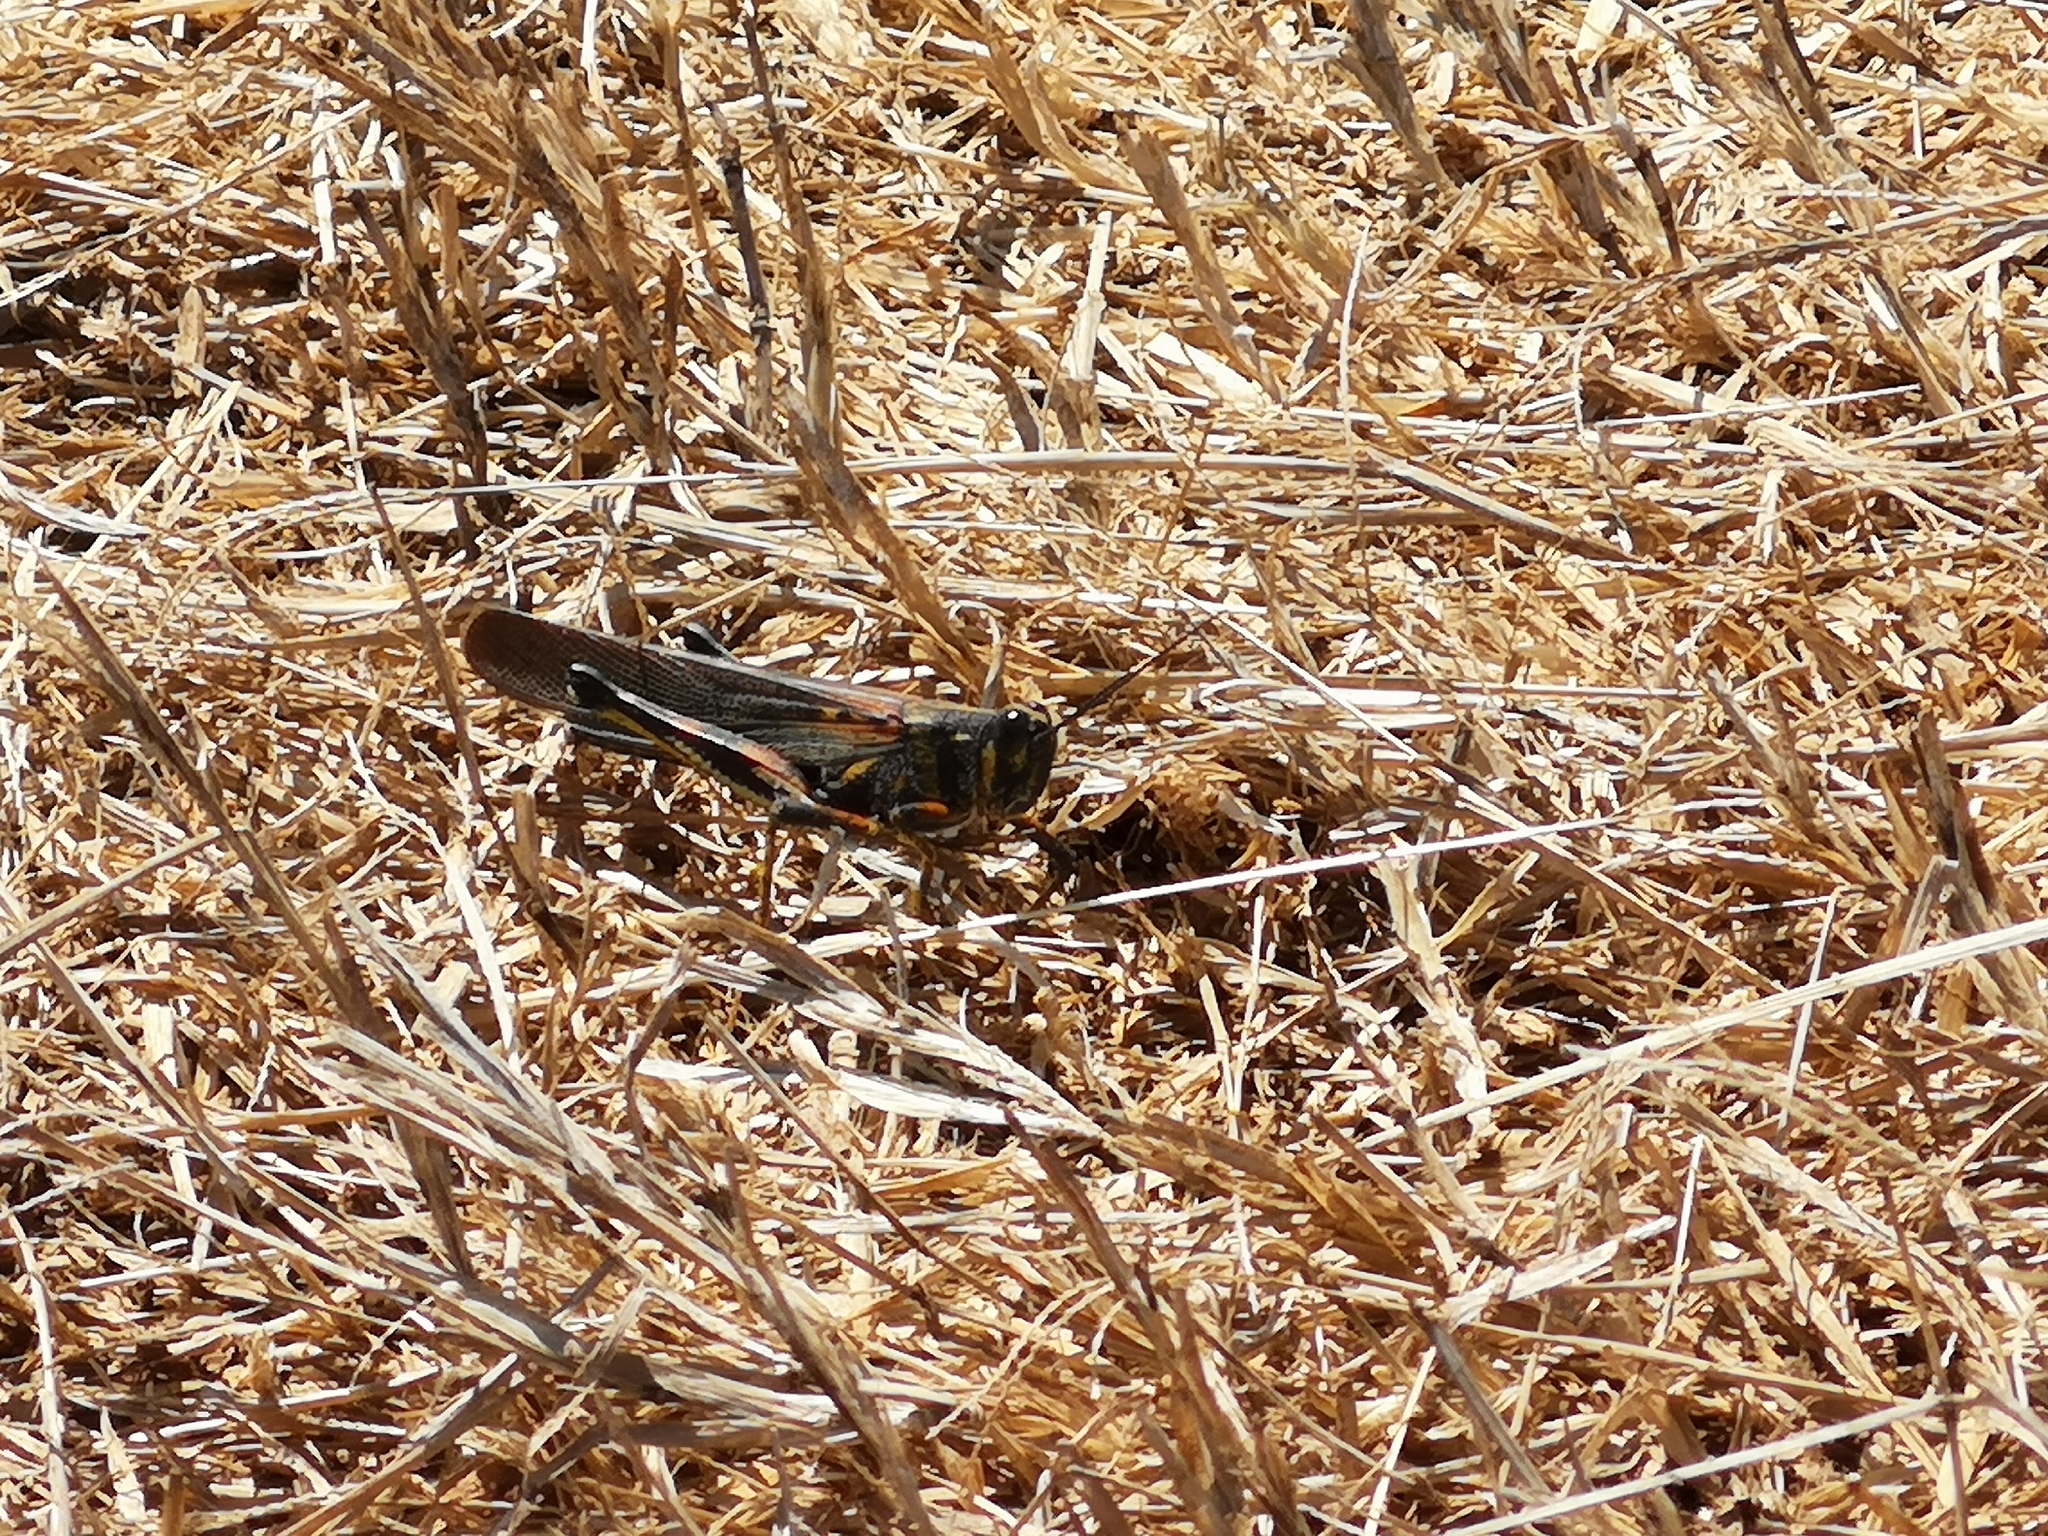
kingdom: Animalia
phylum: Arthropoda
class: Insecta
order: Orthoptera
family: Acrididae
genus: Schistocerca
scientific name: Schistocerca melanocera
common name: Large painted locust
